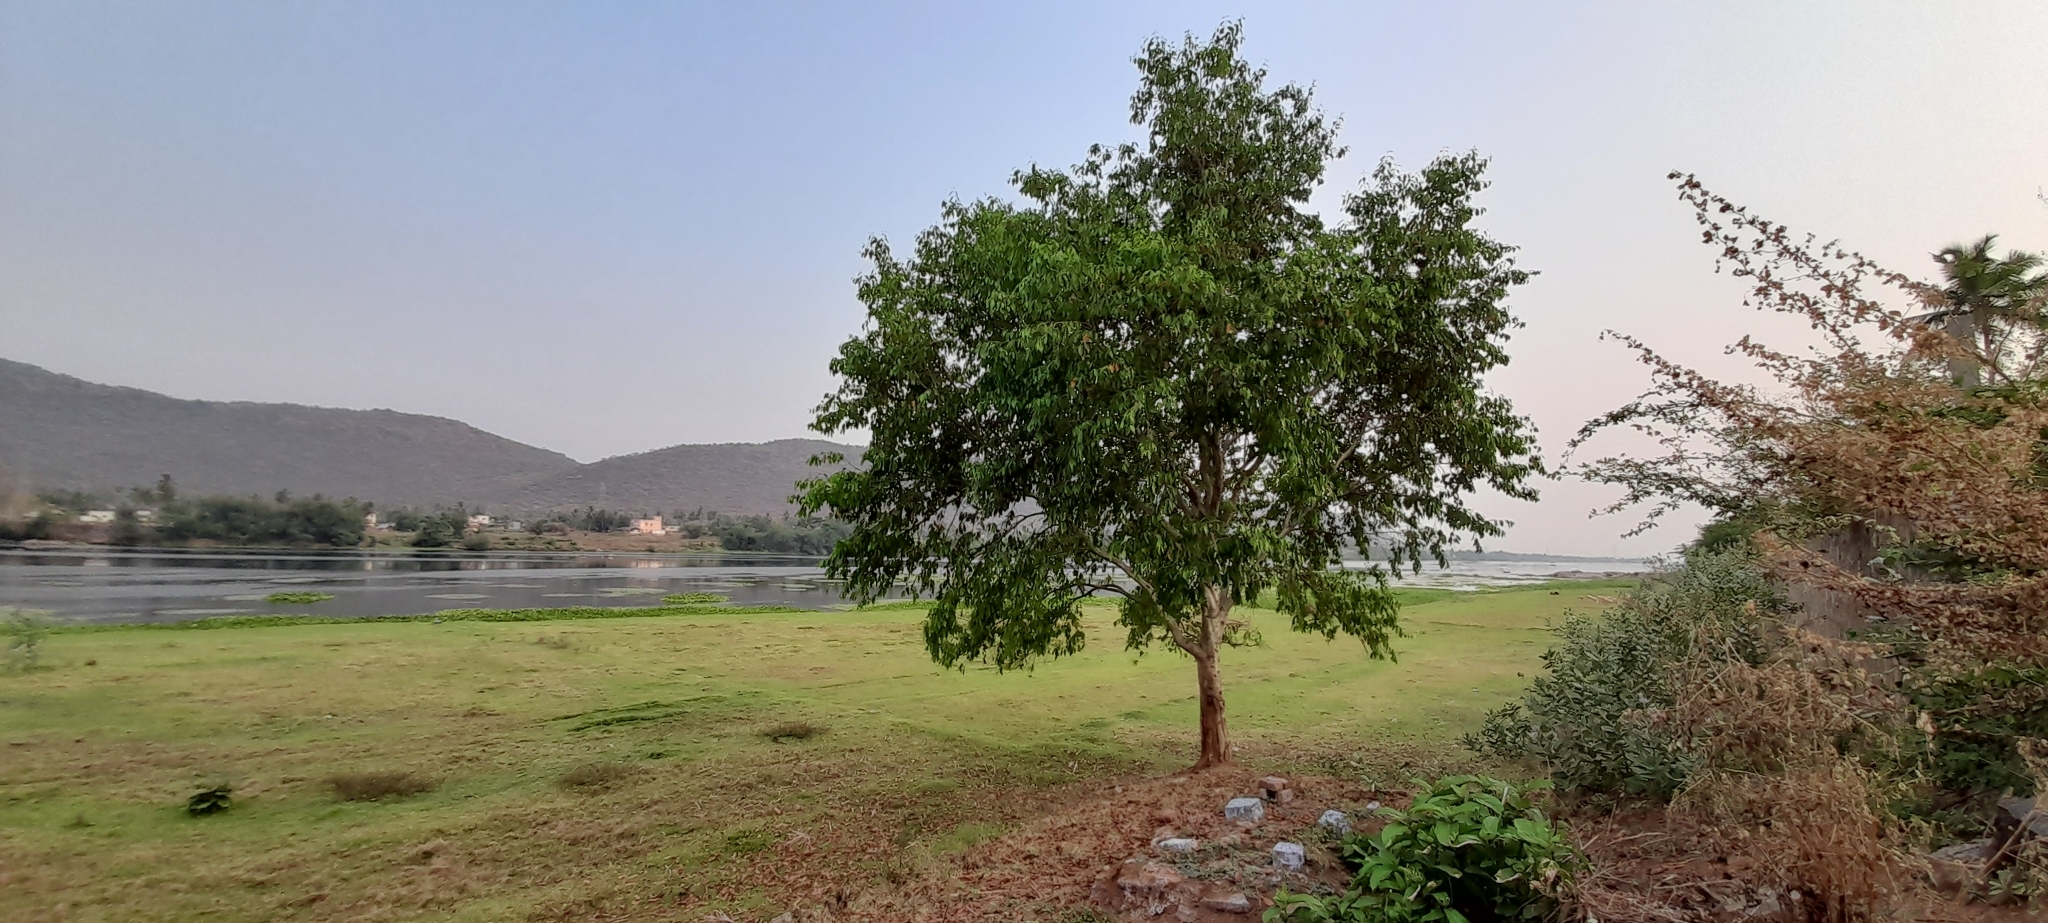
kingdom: Plantae
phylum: Tracheophyta
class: Magnoliopsida
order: Myrtales
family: Myrtaceae
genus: Syzygium
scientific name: Syzygium cumini
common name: Java plum
